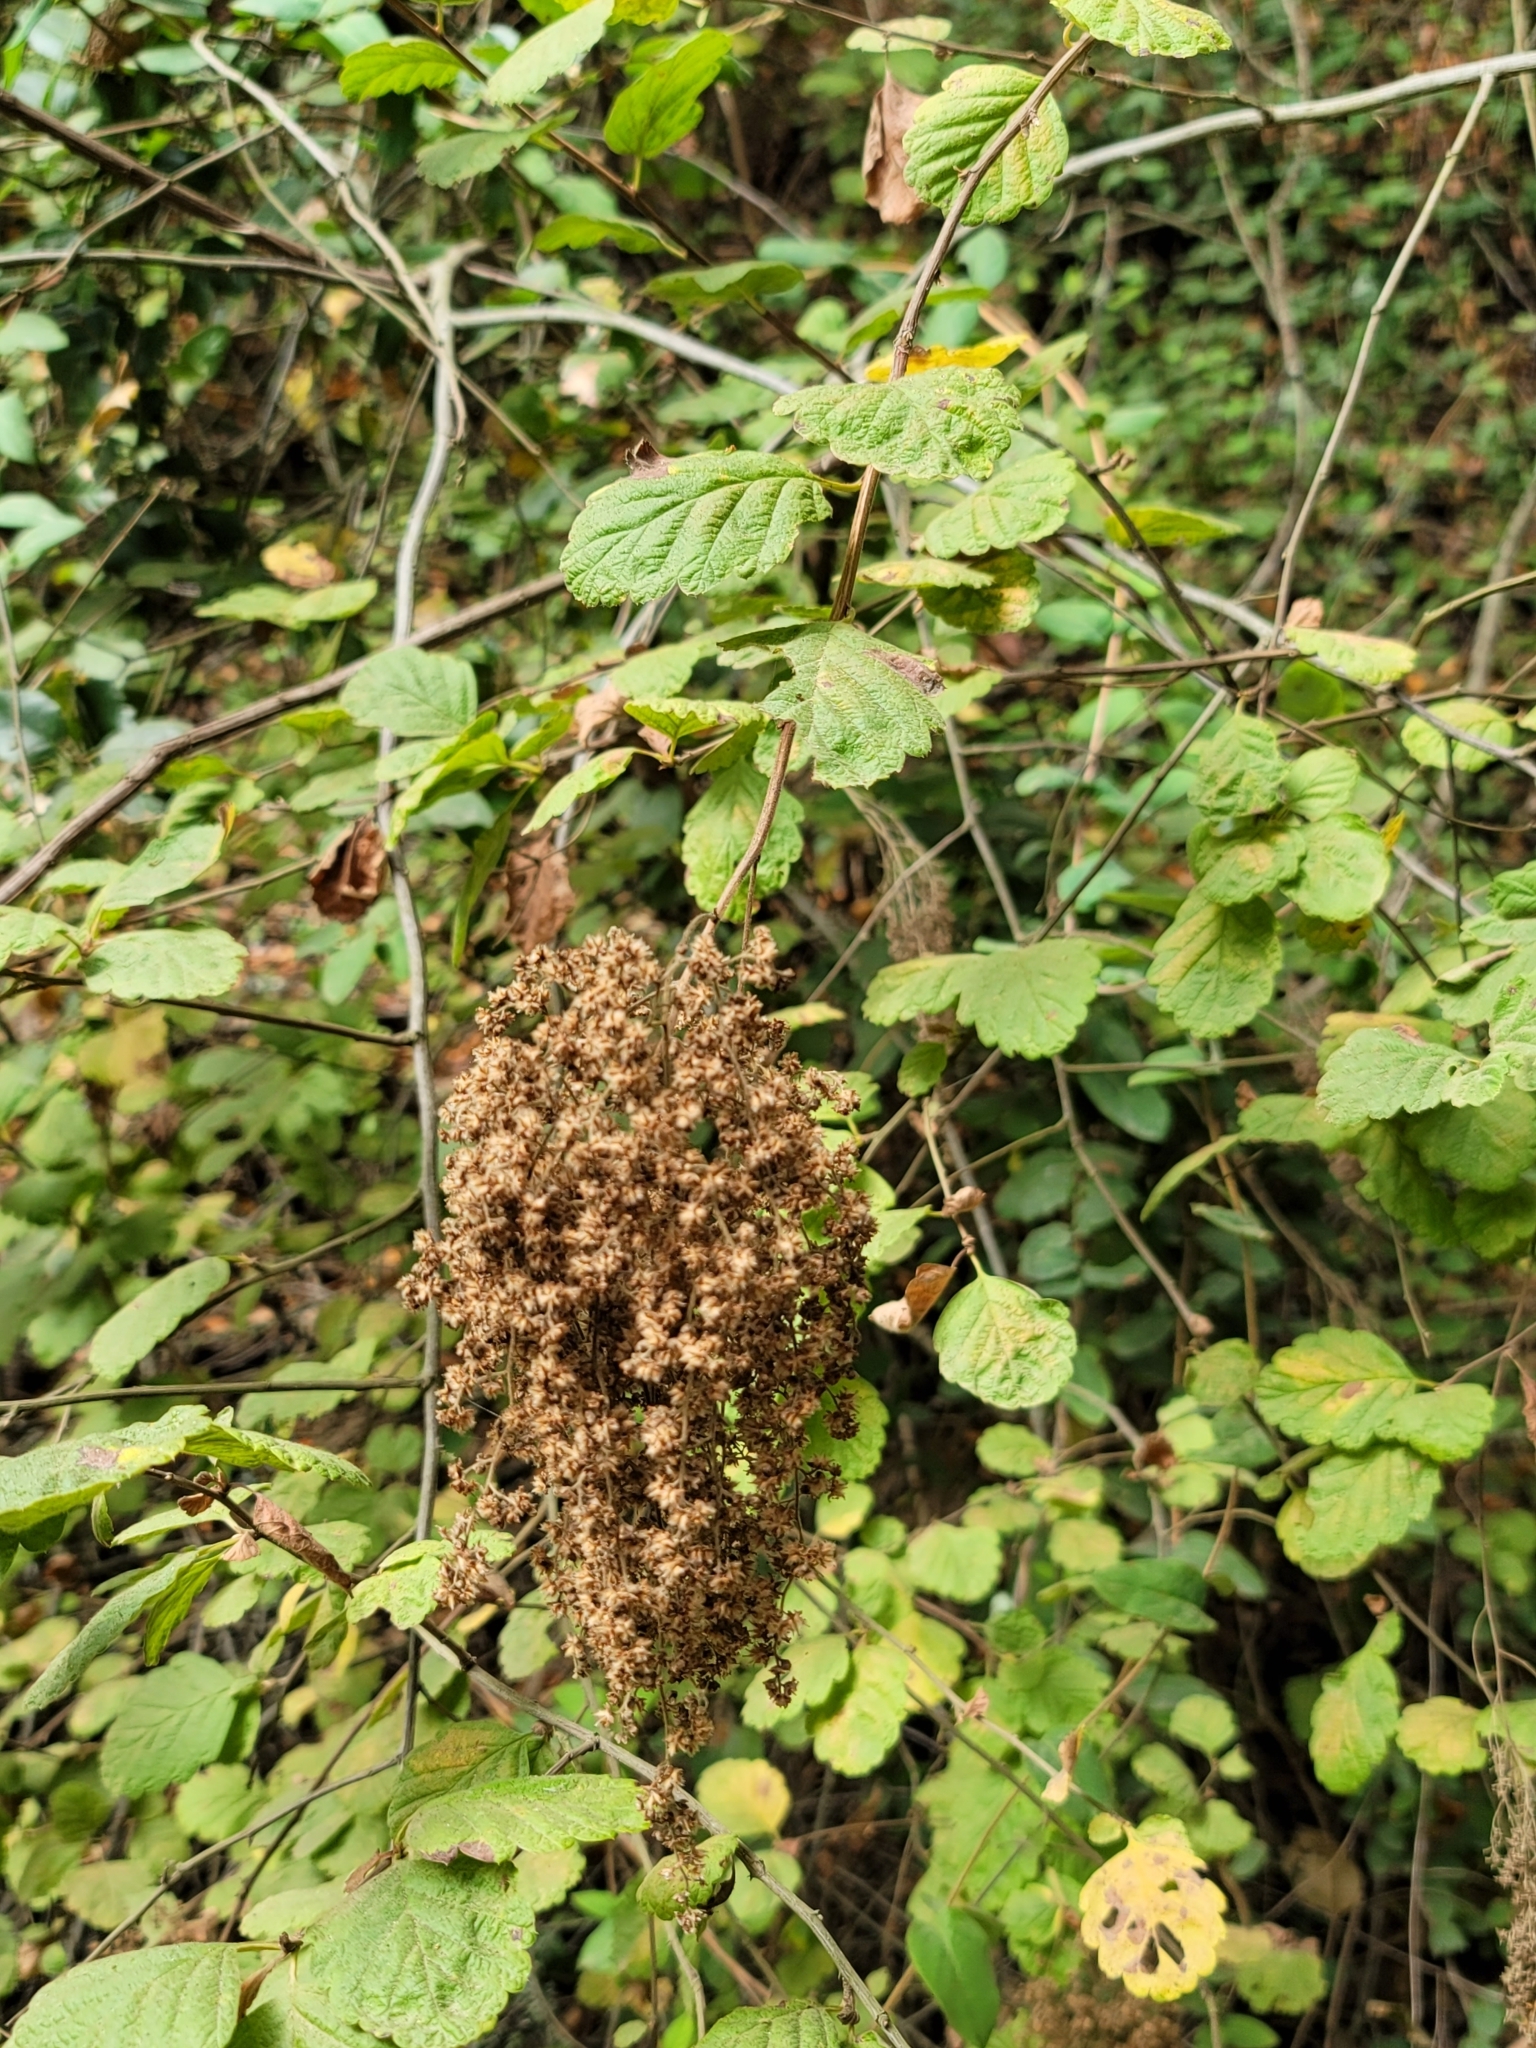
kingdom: Plantae
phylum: Tracheophyta
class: Magnoliopsida
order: Rosales
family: Rosaceae
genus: Holodiscus
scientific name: Holodiscus discolor
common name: Oceanspray
